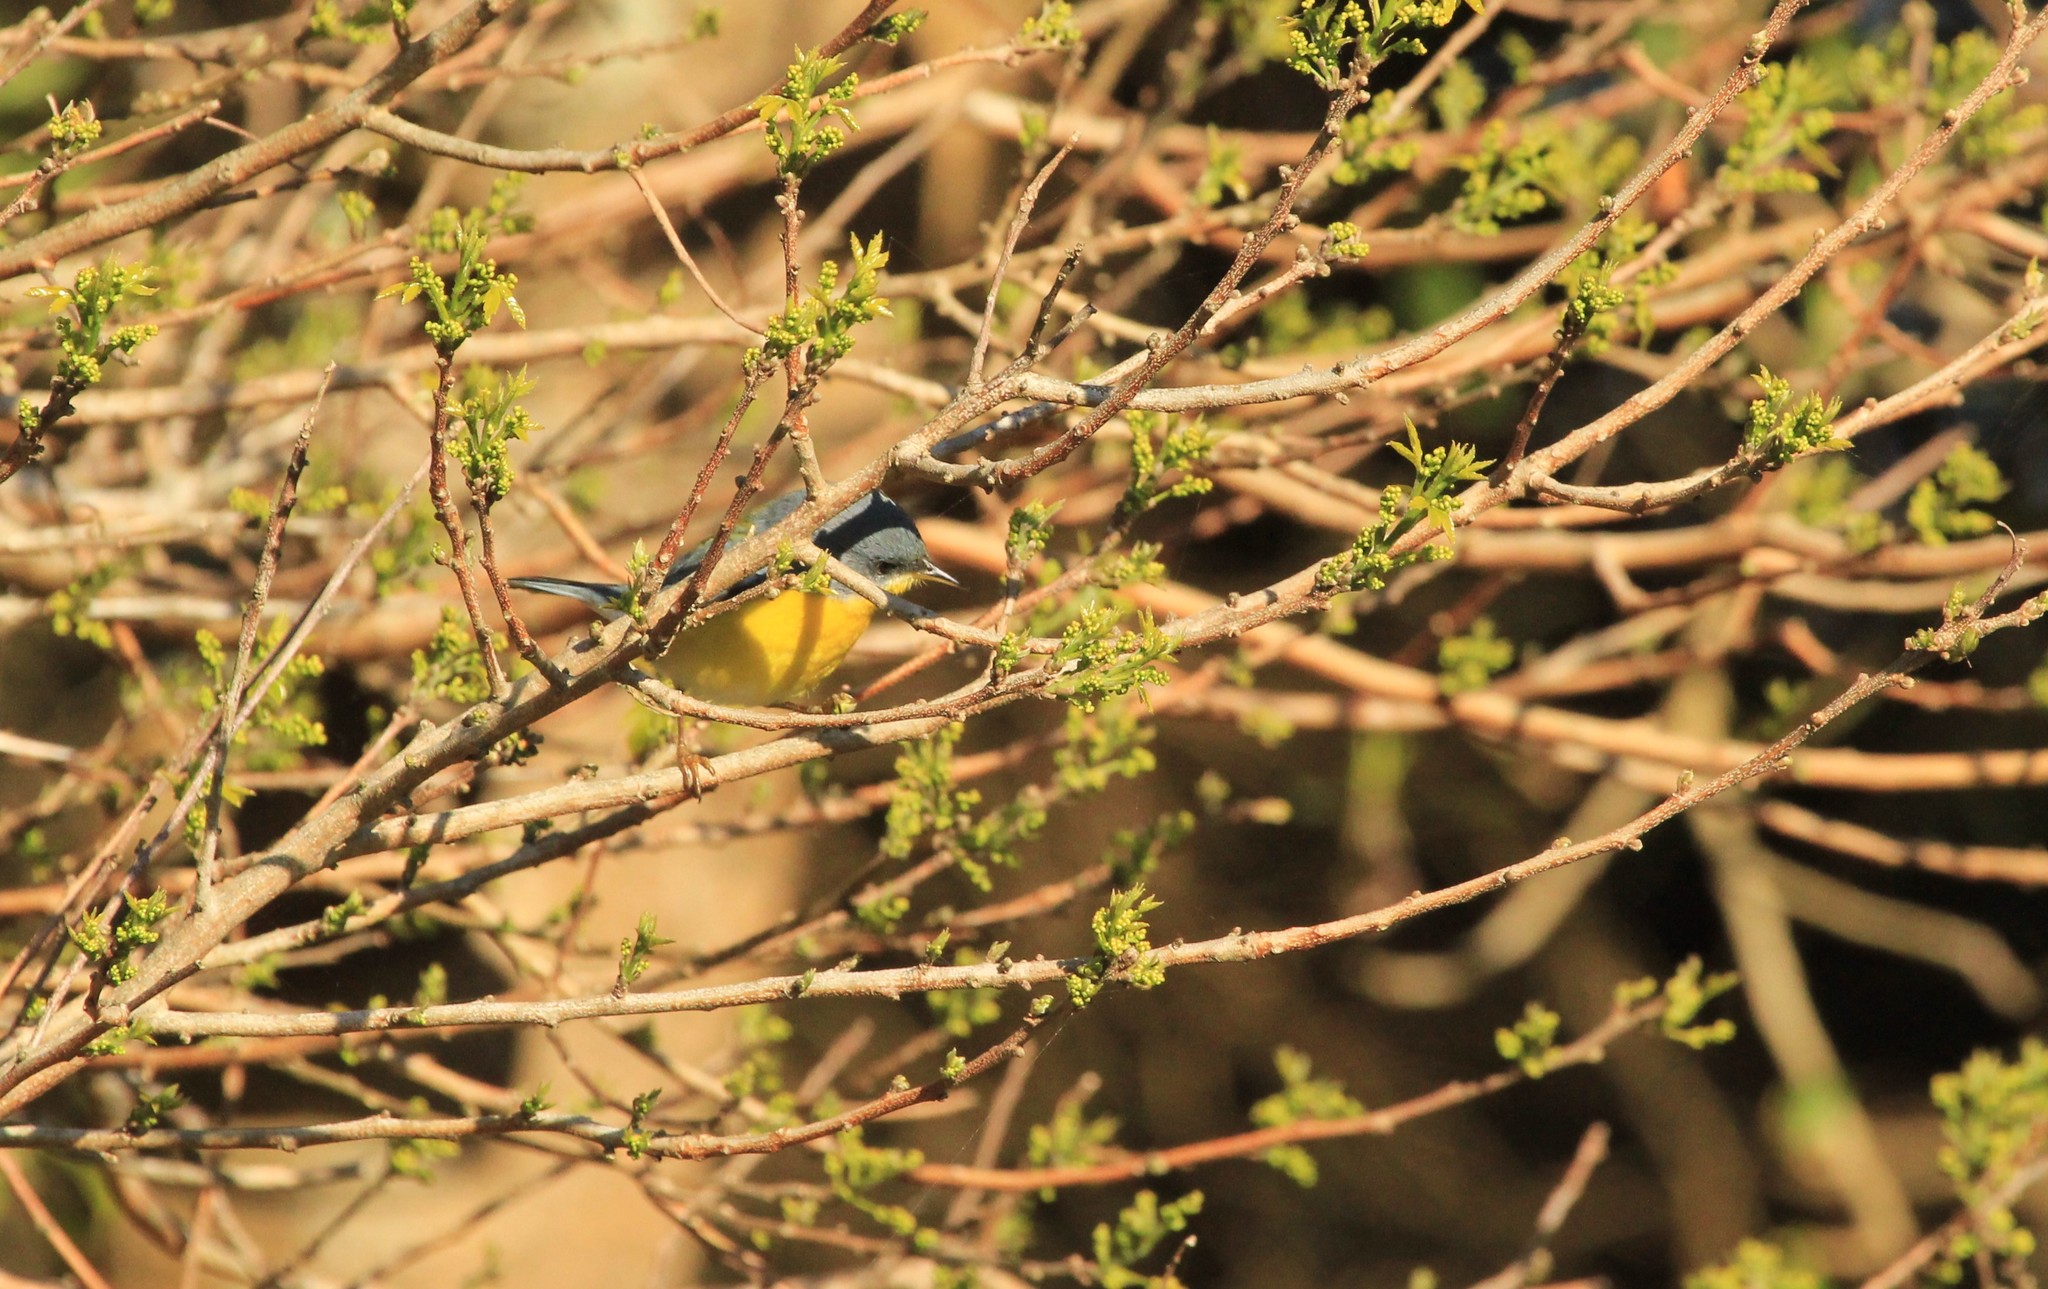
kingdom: Animalia
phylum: Chordata
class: Aves
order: Passeriformes
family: Parulidae
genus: Setophaga
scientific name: Setophaga pitiayumi
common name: Tropical parula
